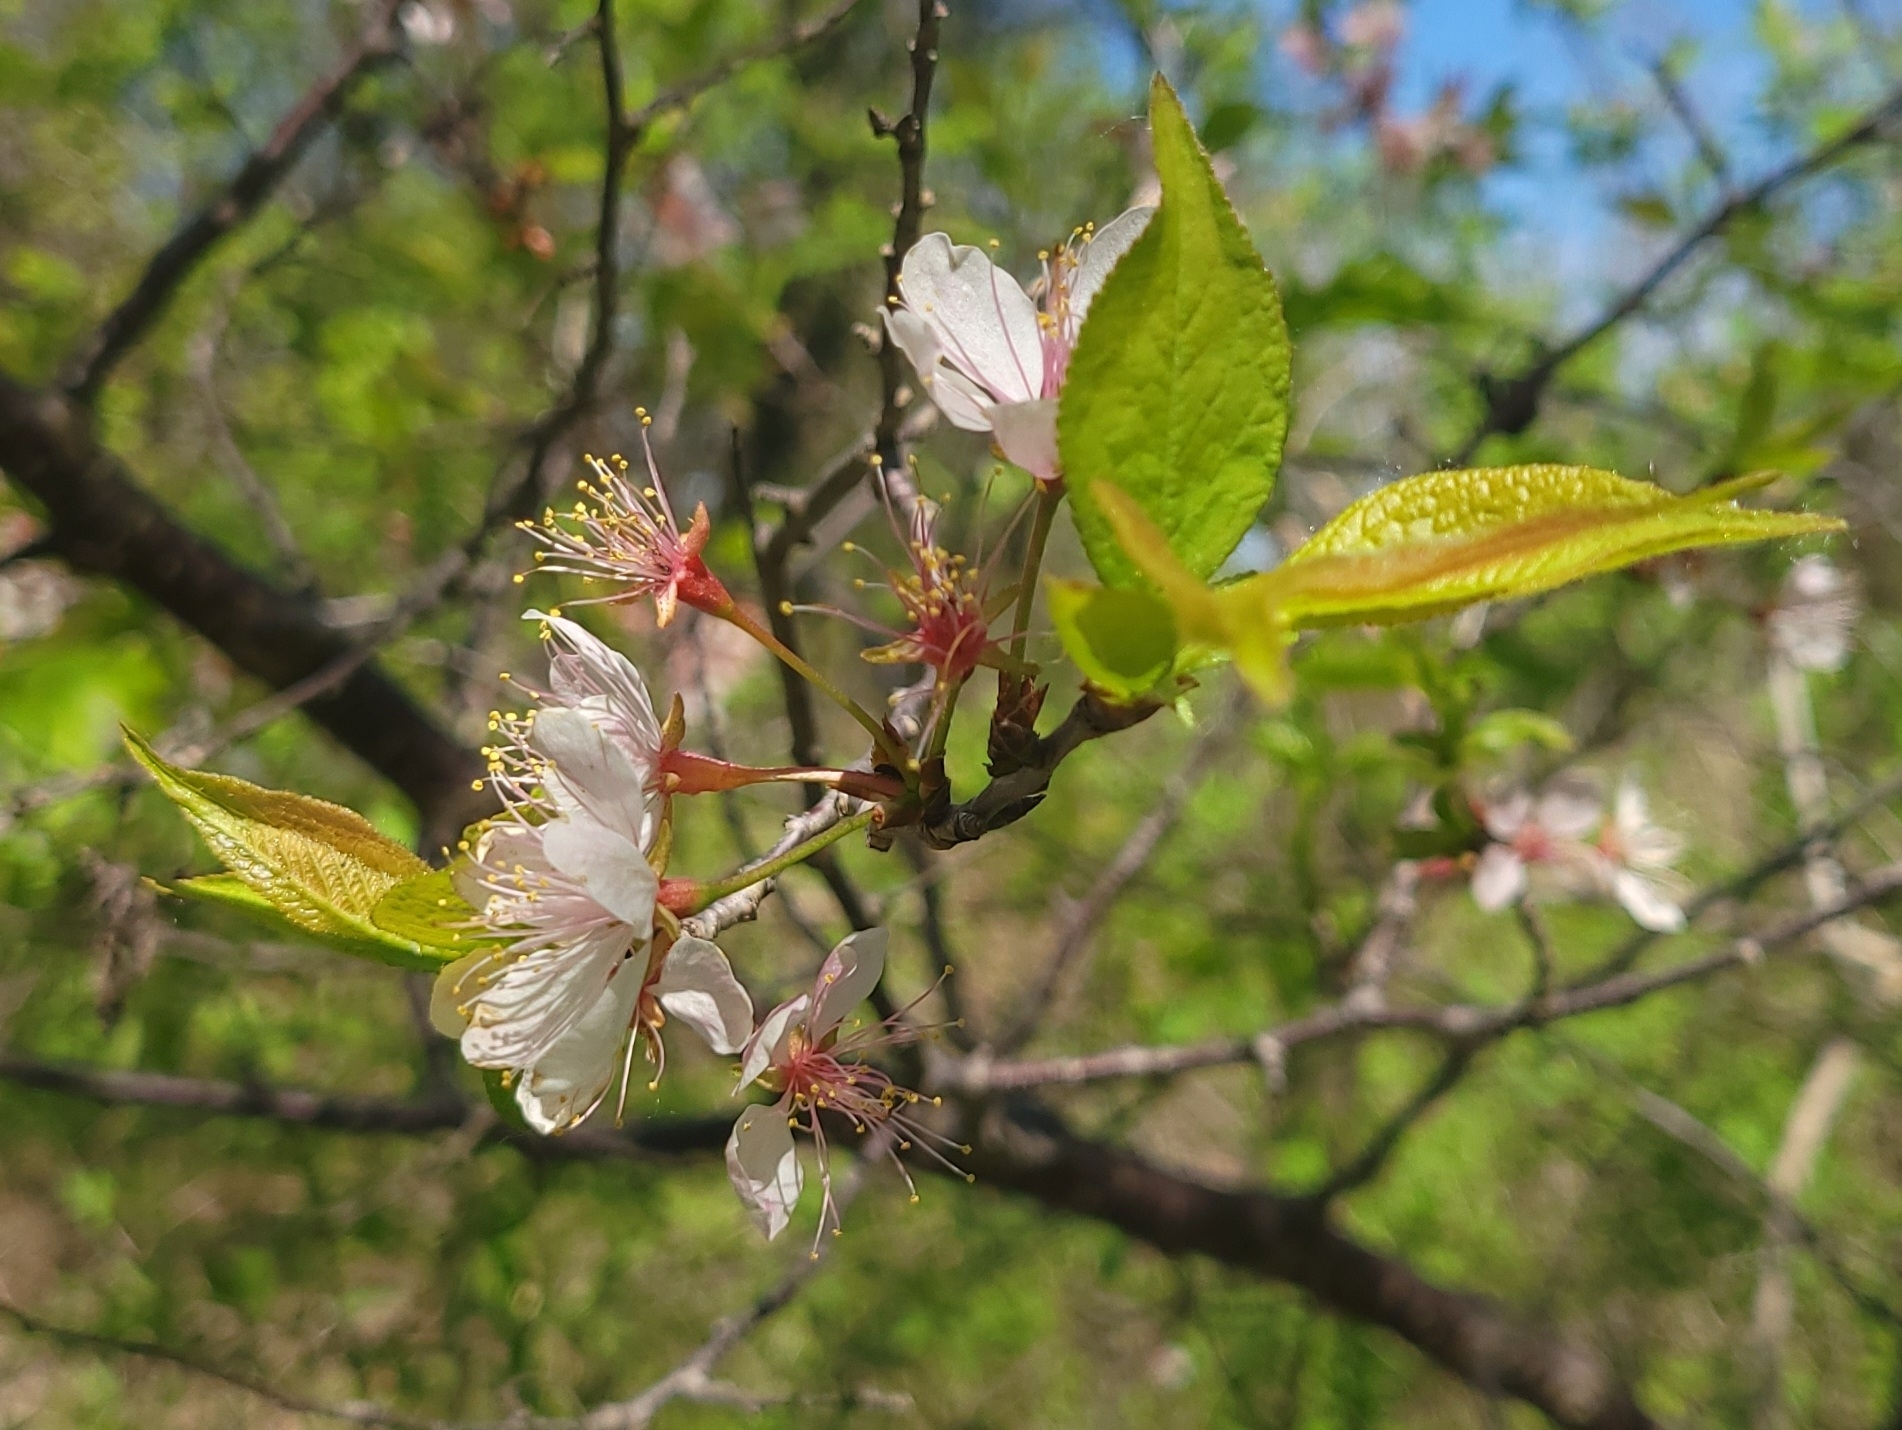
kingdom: Plantae
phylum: Tracheophyta
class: Magnoliopsida
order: Rosales
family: Rosaceae
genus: Prunus
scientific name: Prunus americana
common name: American plum
